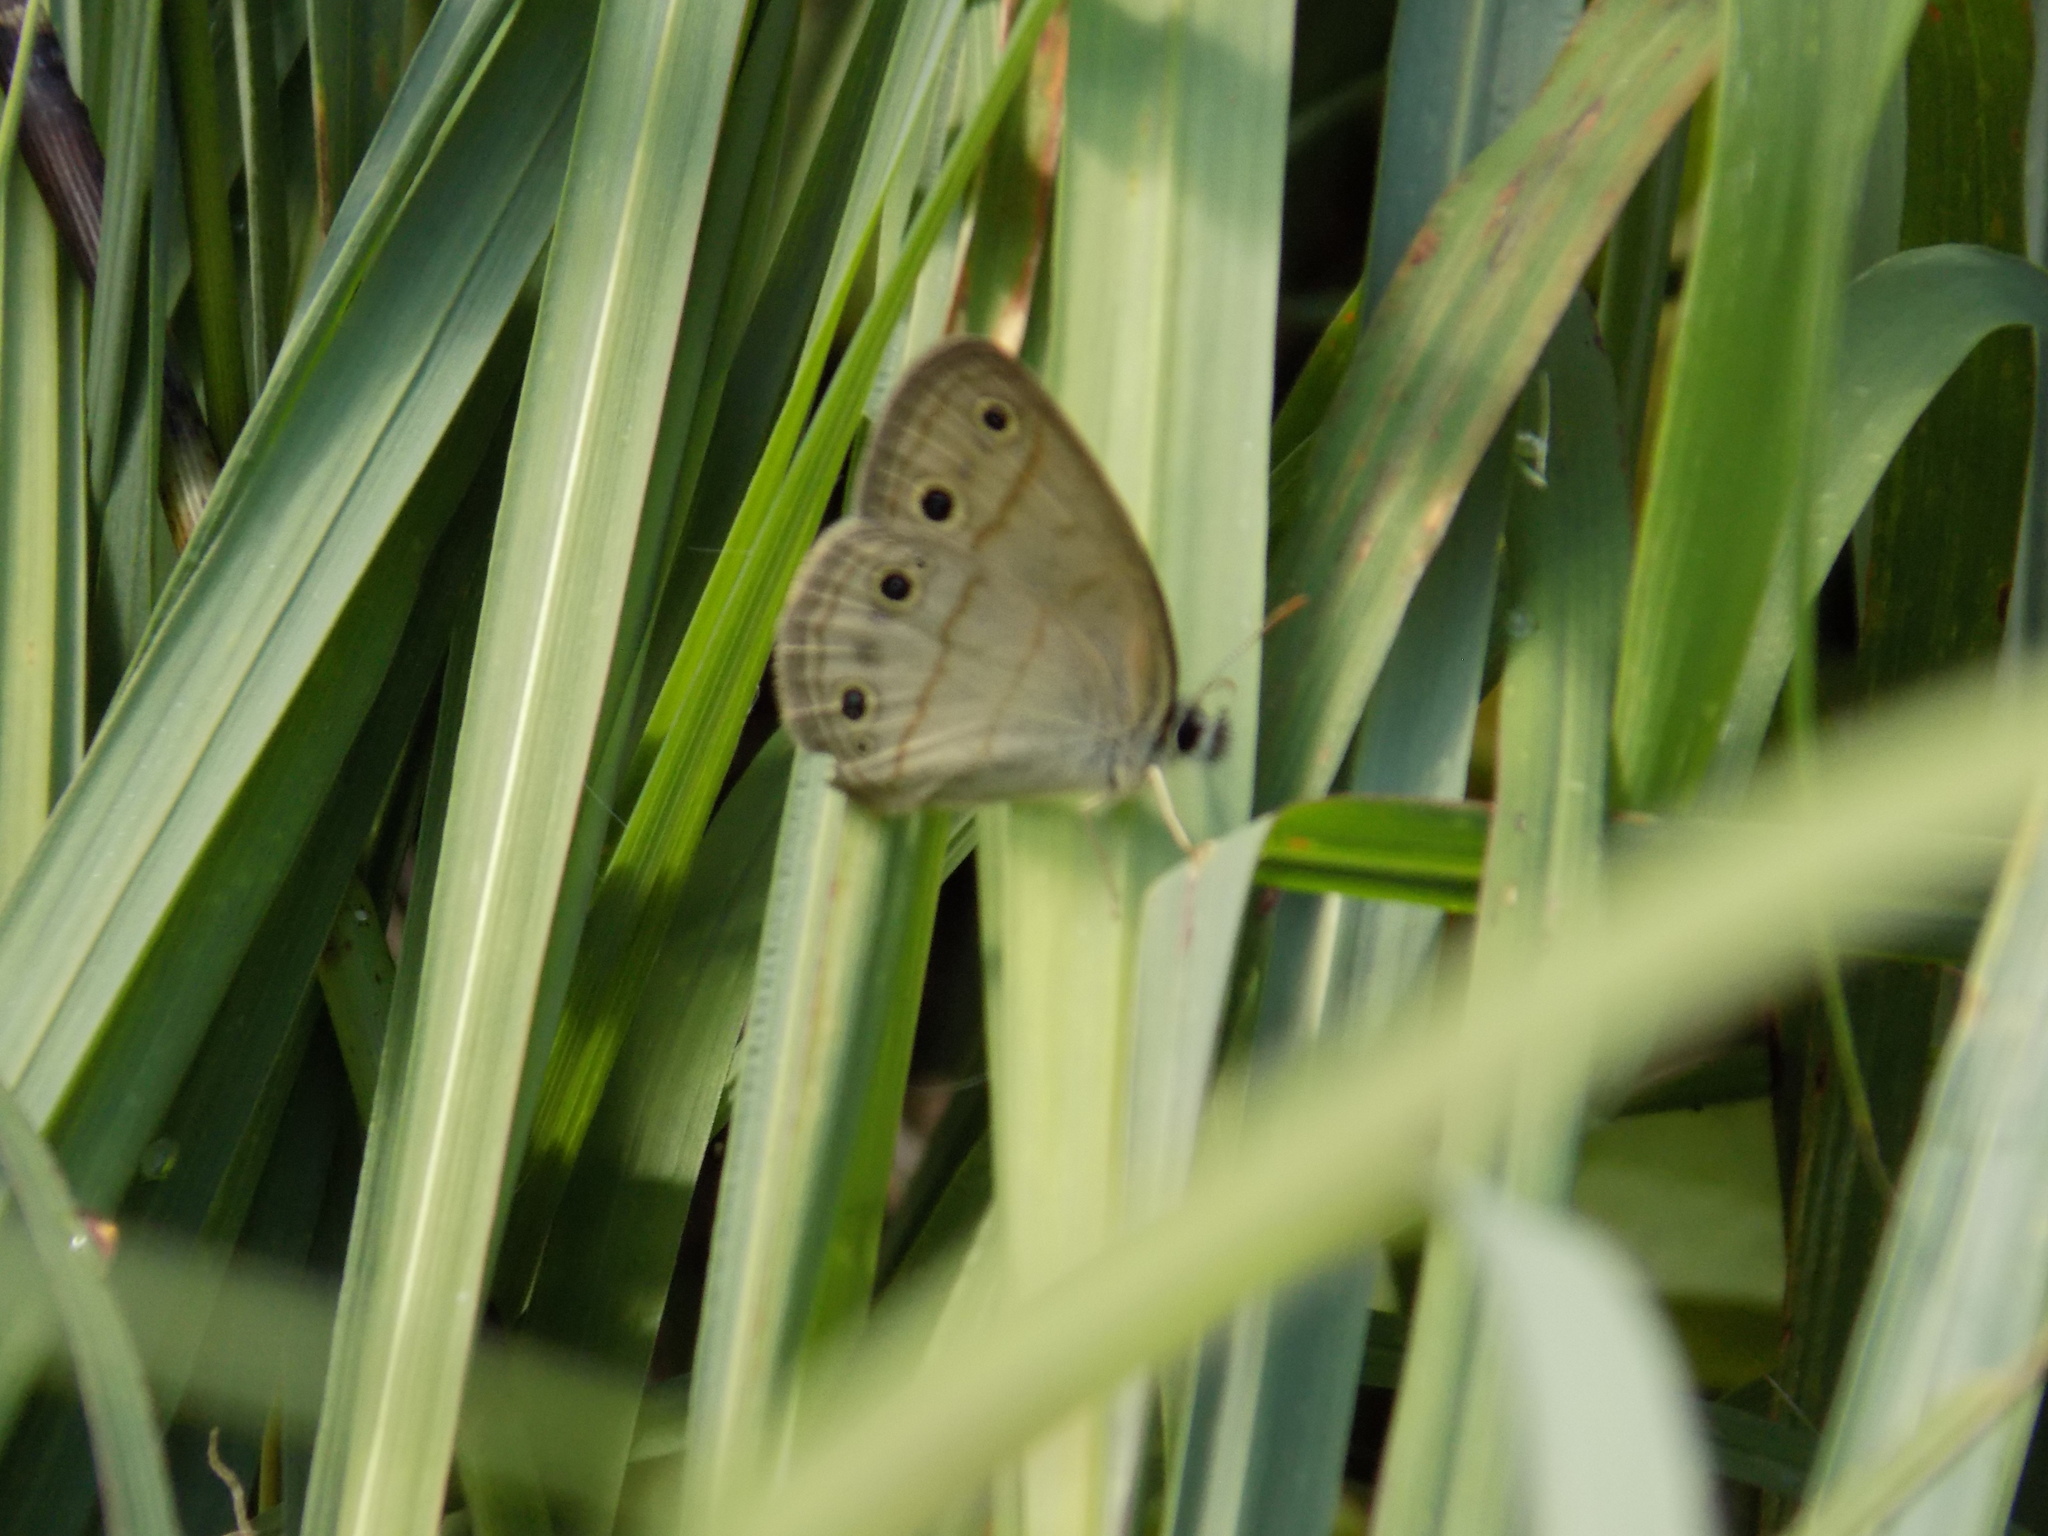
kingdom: Animalia
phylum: Arthropoda
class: Insecta
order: Lepidoptera
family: Nymphalidae
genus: Euptychia
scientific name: Euptychia cymela
